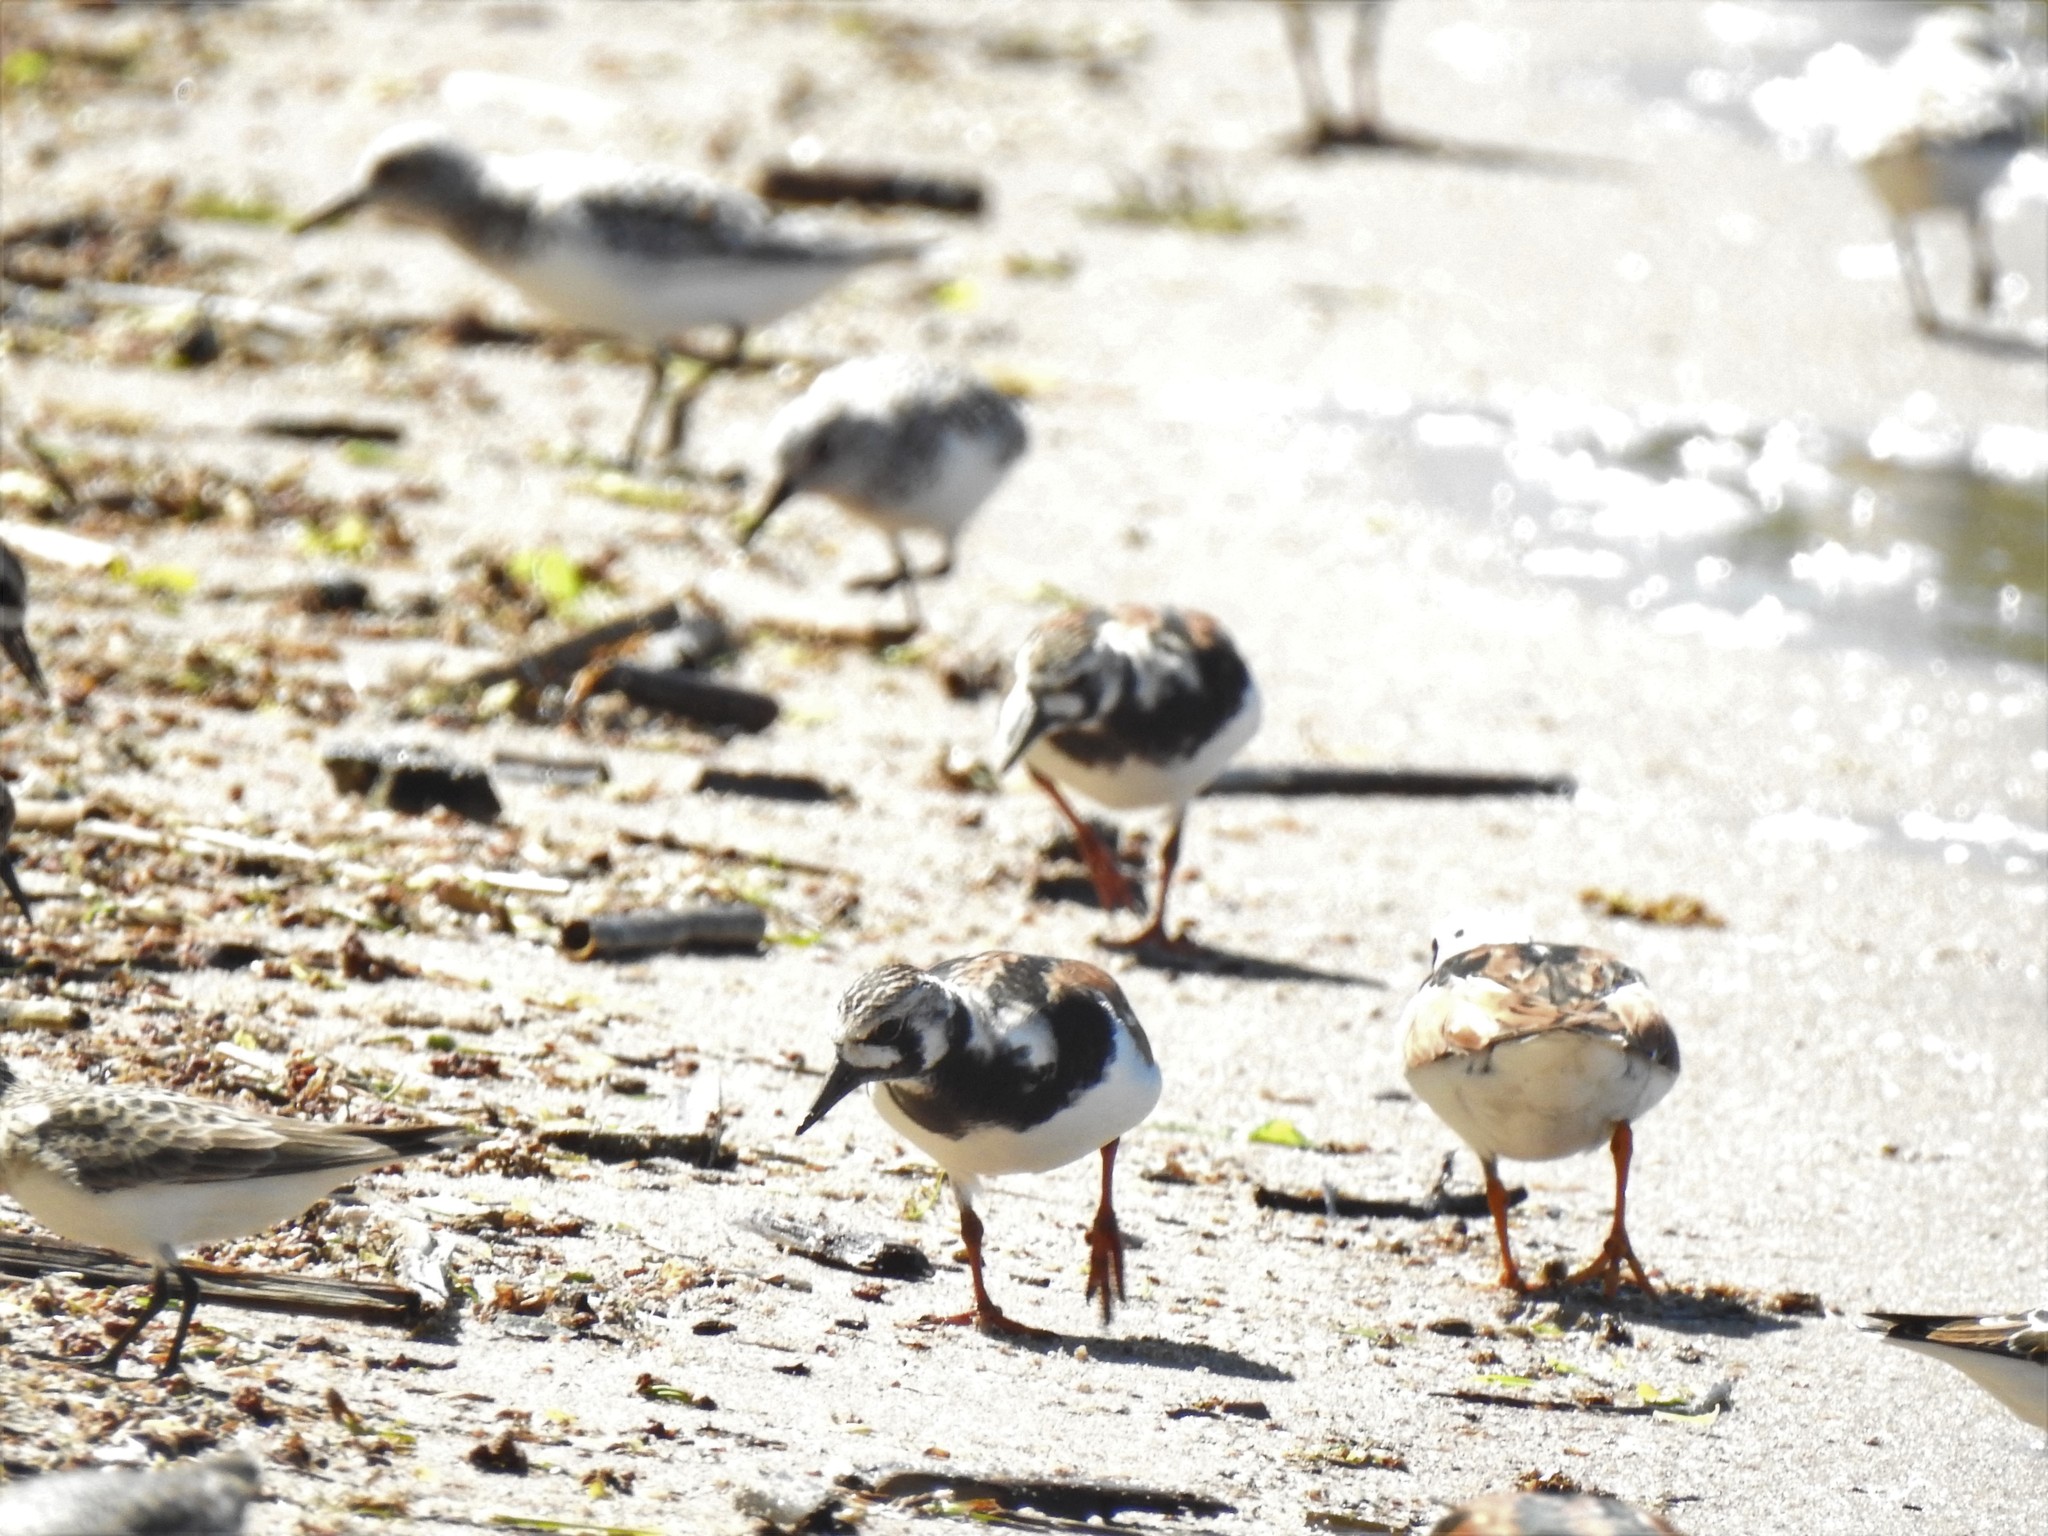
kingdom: Animalia
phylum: Chordata
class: Aves
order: Charadriiformes
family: Scolopacidae
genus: Arenaria
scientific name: Arenaria interpres
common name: Ruddy turnstone
